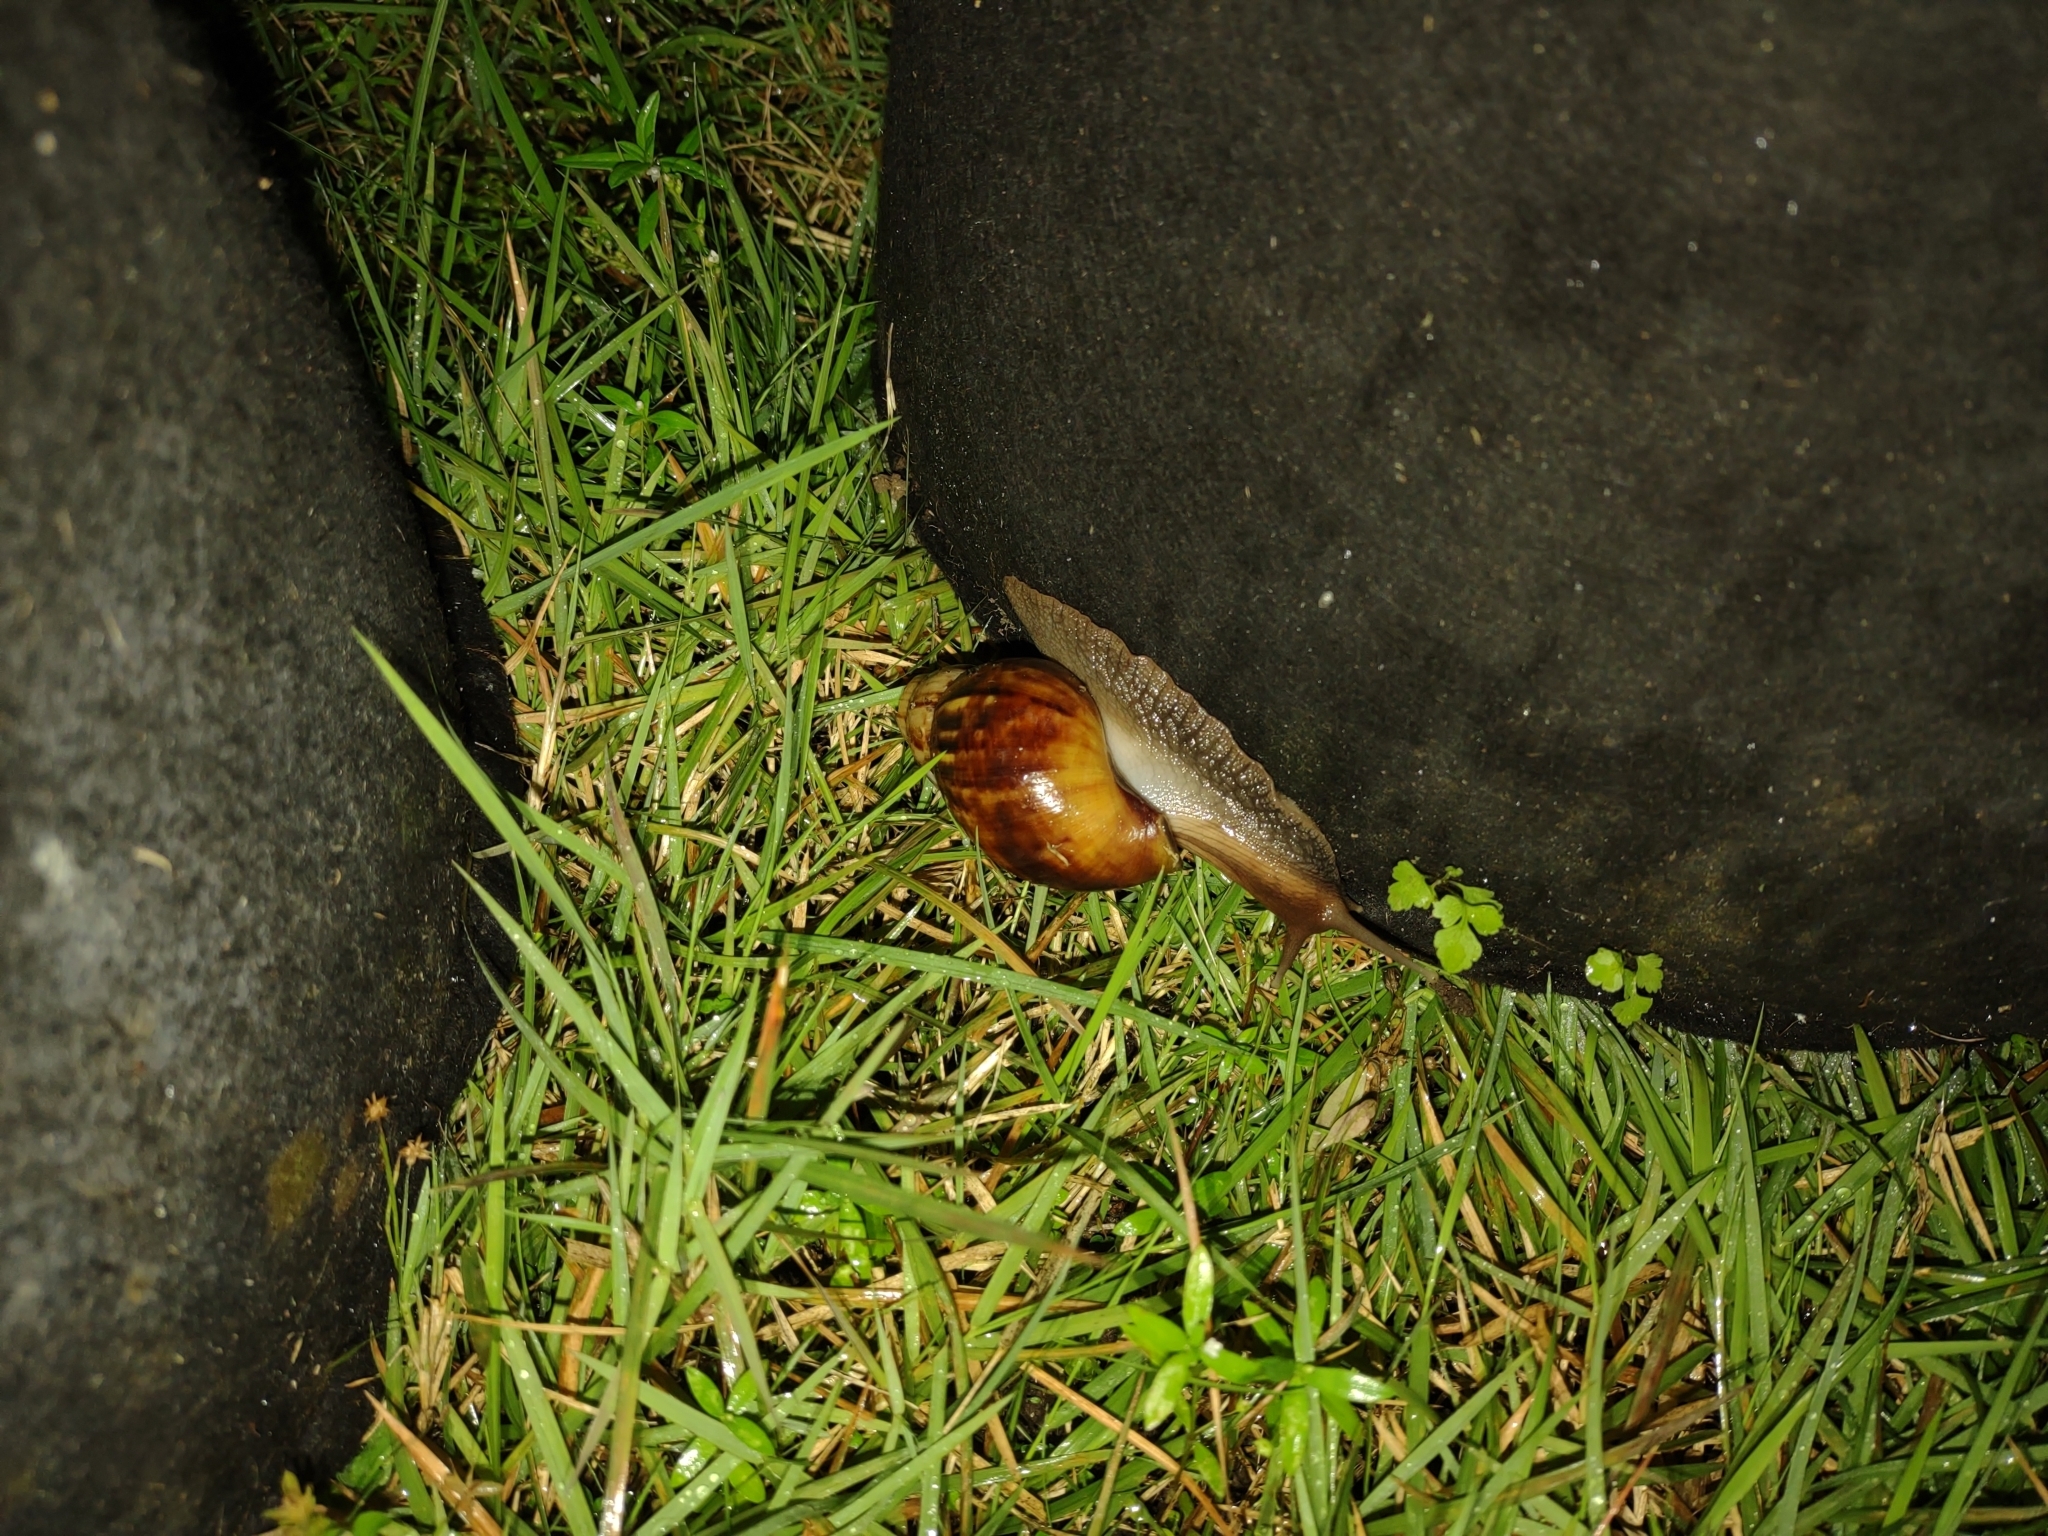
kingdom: Animalia
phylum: Mollusca
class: Gastropoda
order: Stylommatophora
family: Achatinidae
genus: Lissachatina
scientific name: Lissachatina fulica
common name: Giant african snail
